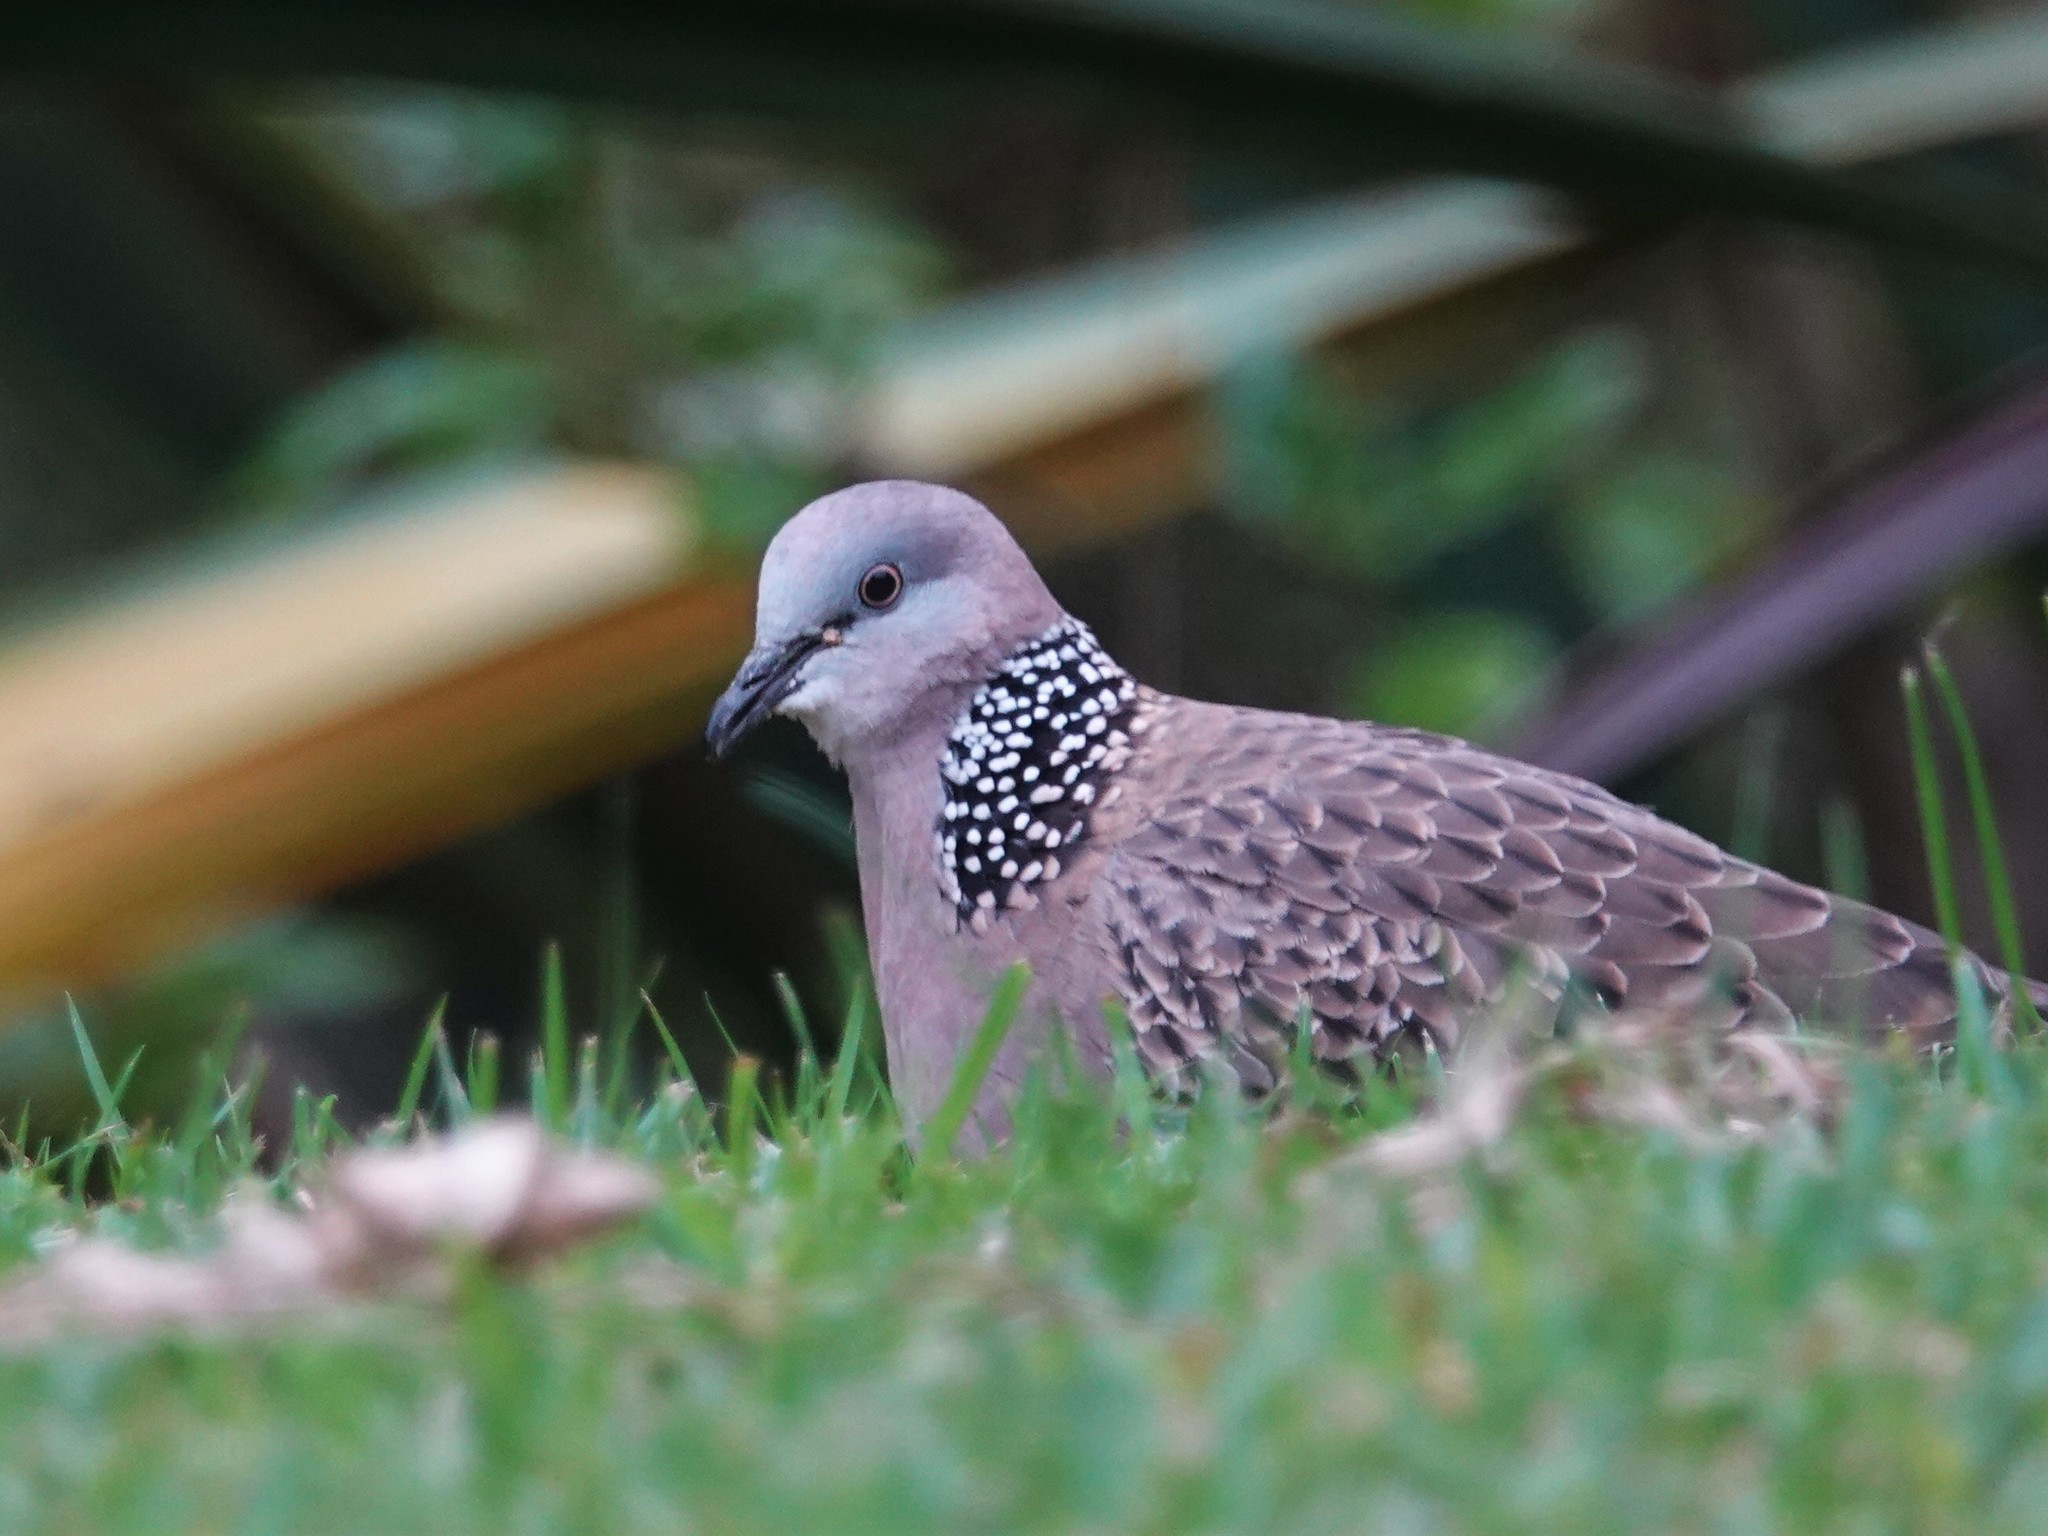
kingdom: Animalia
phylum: Chordata
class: Aves
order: Columbiformes
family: Columbidae
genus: Spilopelia
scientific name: Spilopelia chinensis
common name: Spotted dove
